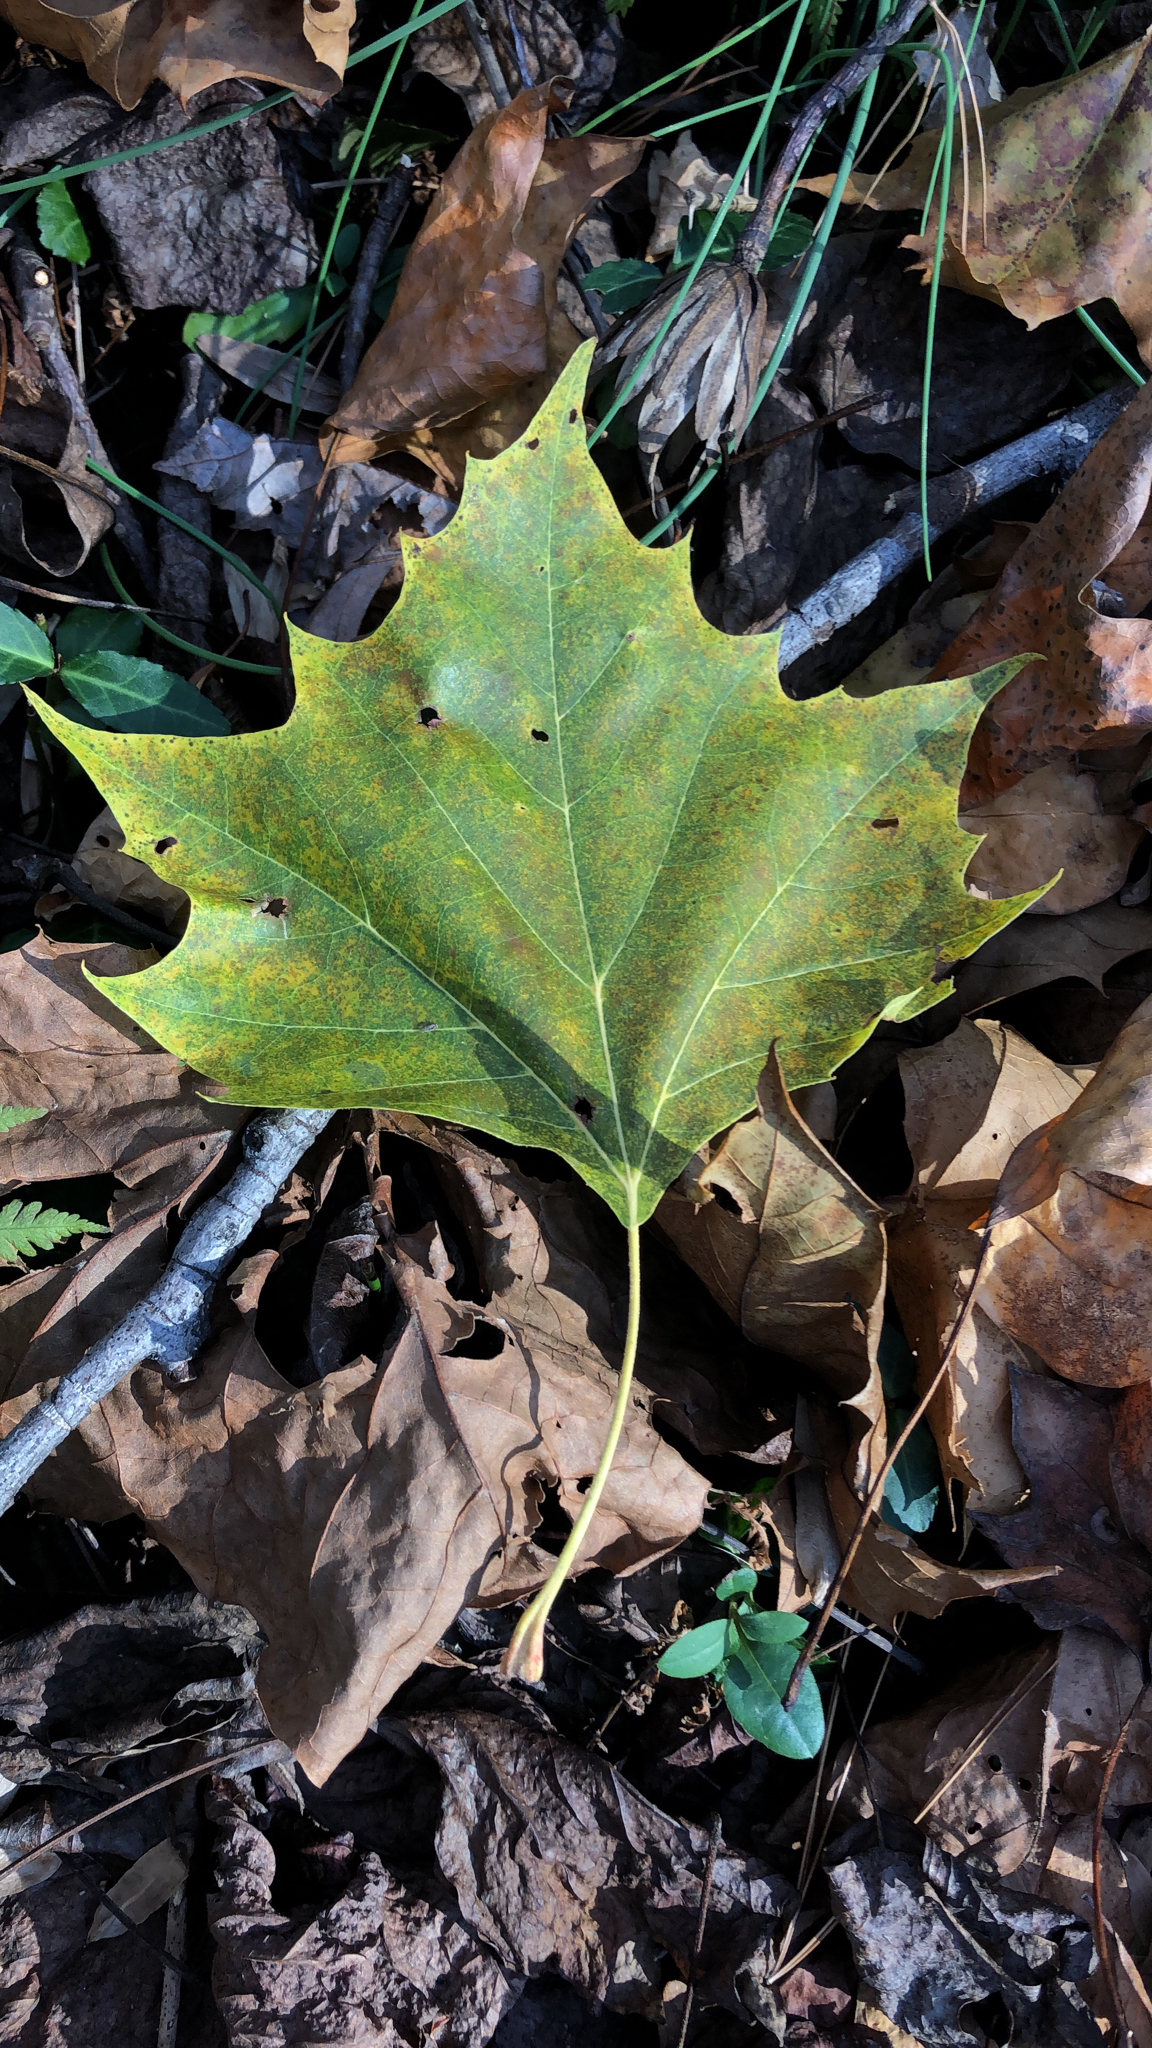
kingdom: Plantae
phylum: Tracheophyta
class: Magnoliopsida
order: Proteales
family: Platanaceae
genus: Platanus
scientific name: Platanus occidentalis
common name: American sycamore
